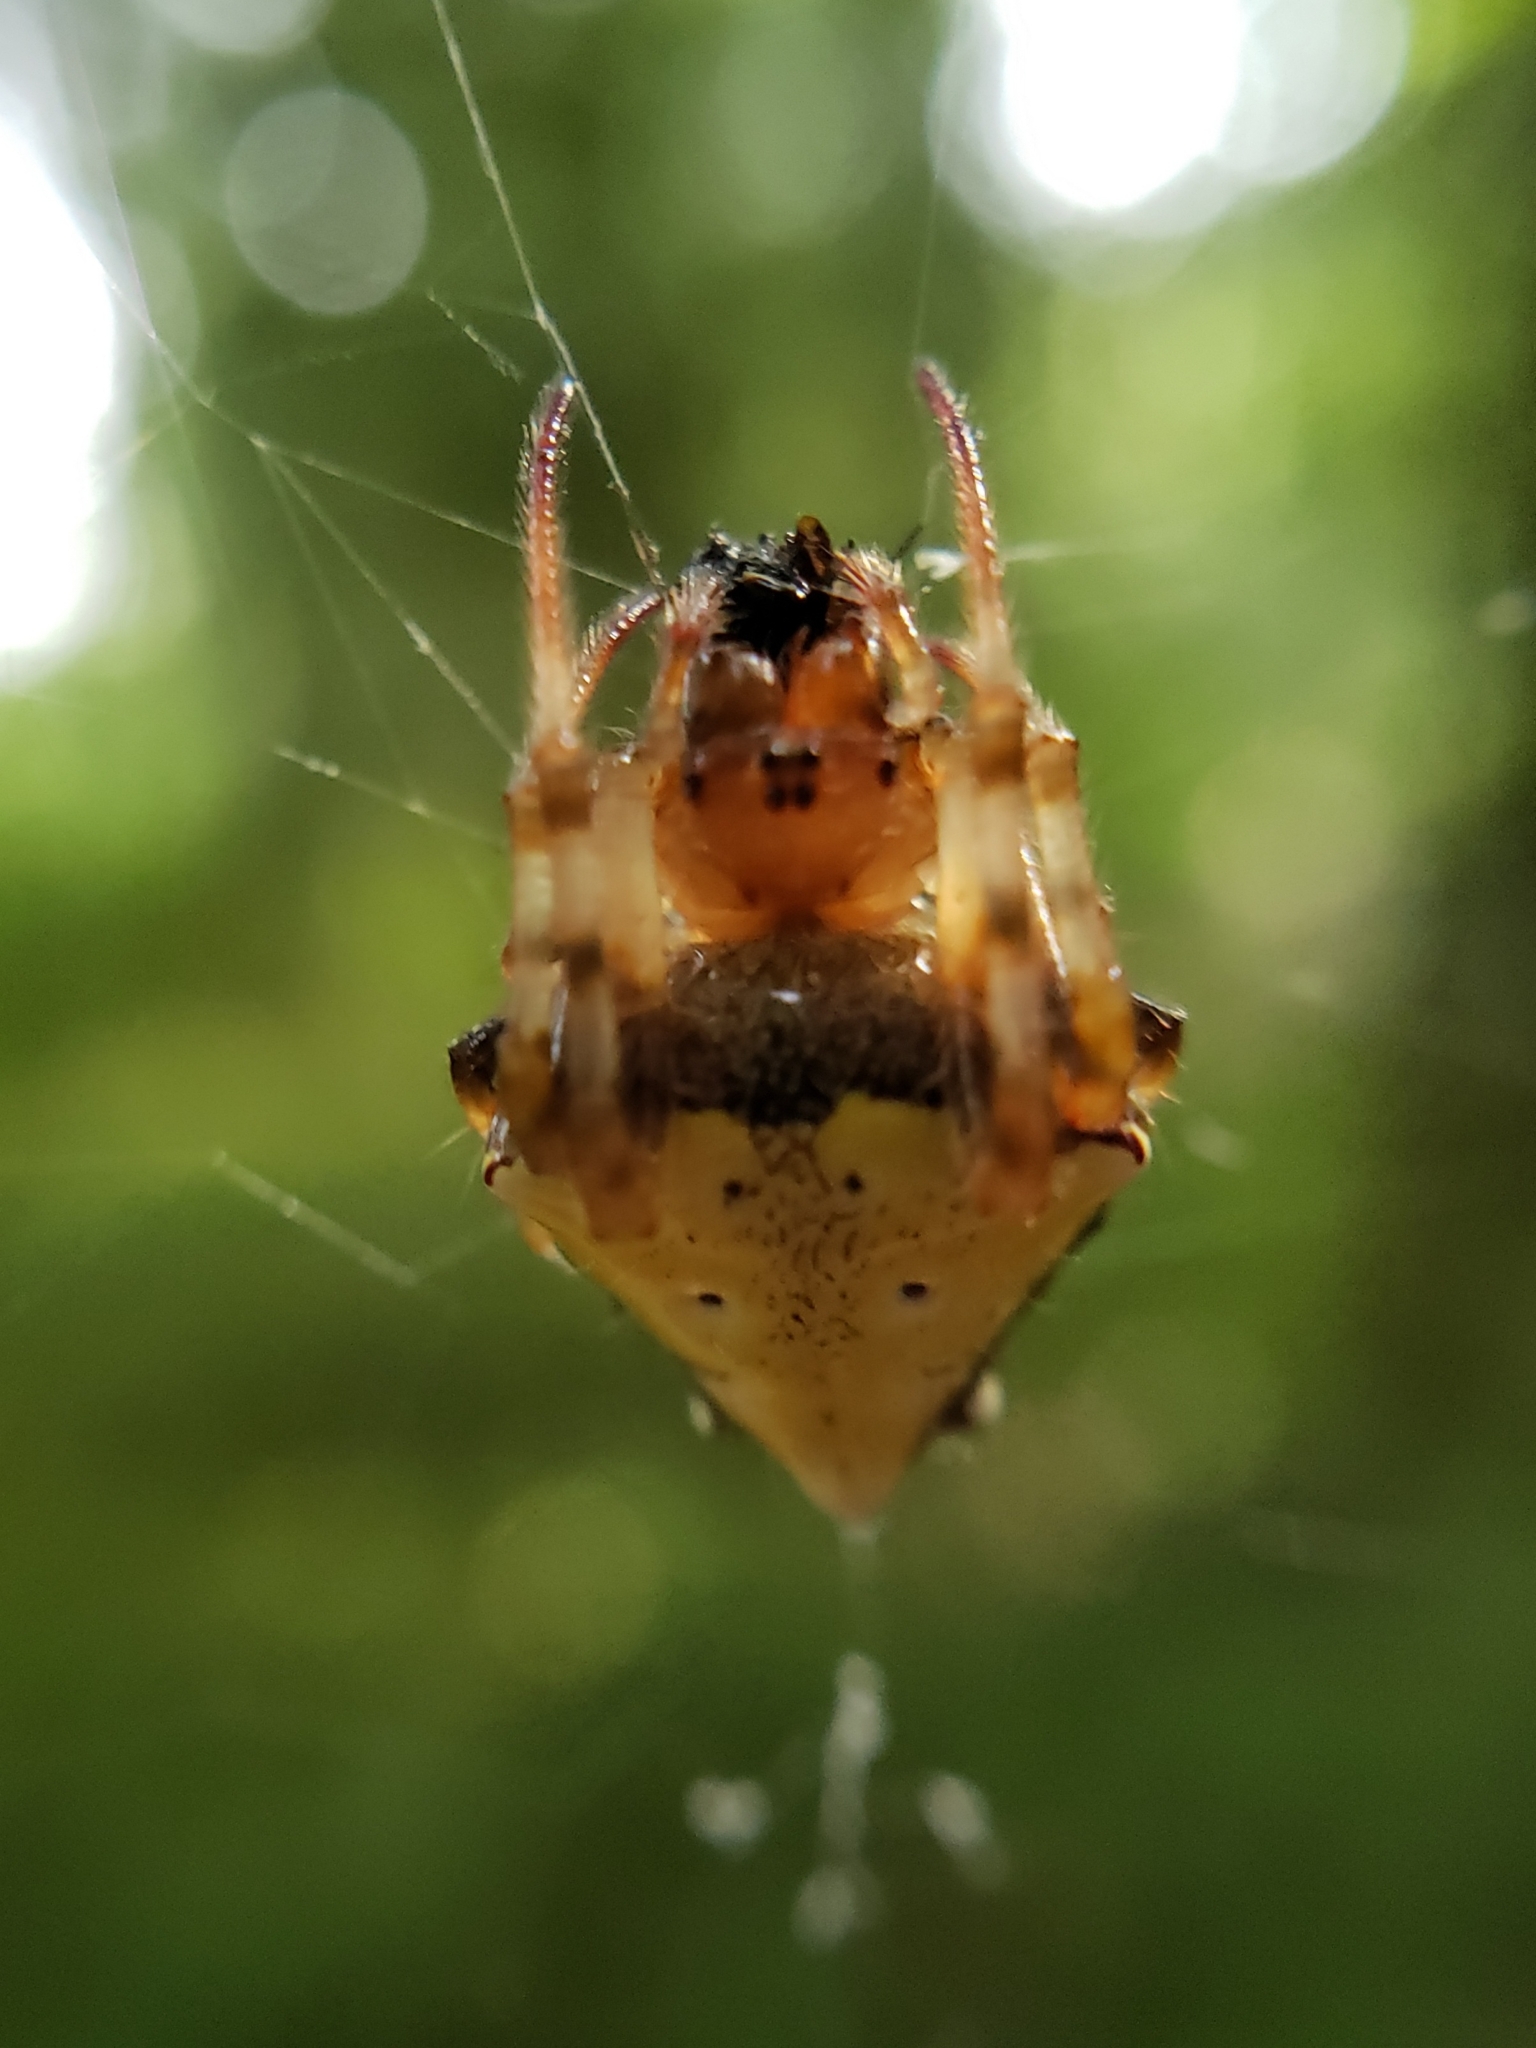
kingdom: Animalia
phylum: Arthropoda
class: Arachnida
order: Araneae
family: Araneidae
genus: Verrucosa
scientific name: Verrucosa arenata
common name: Orb weavers
